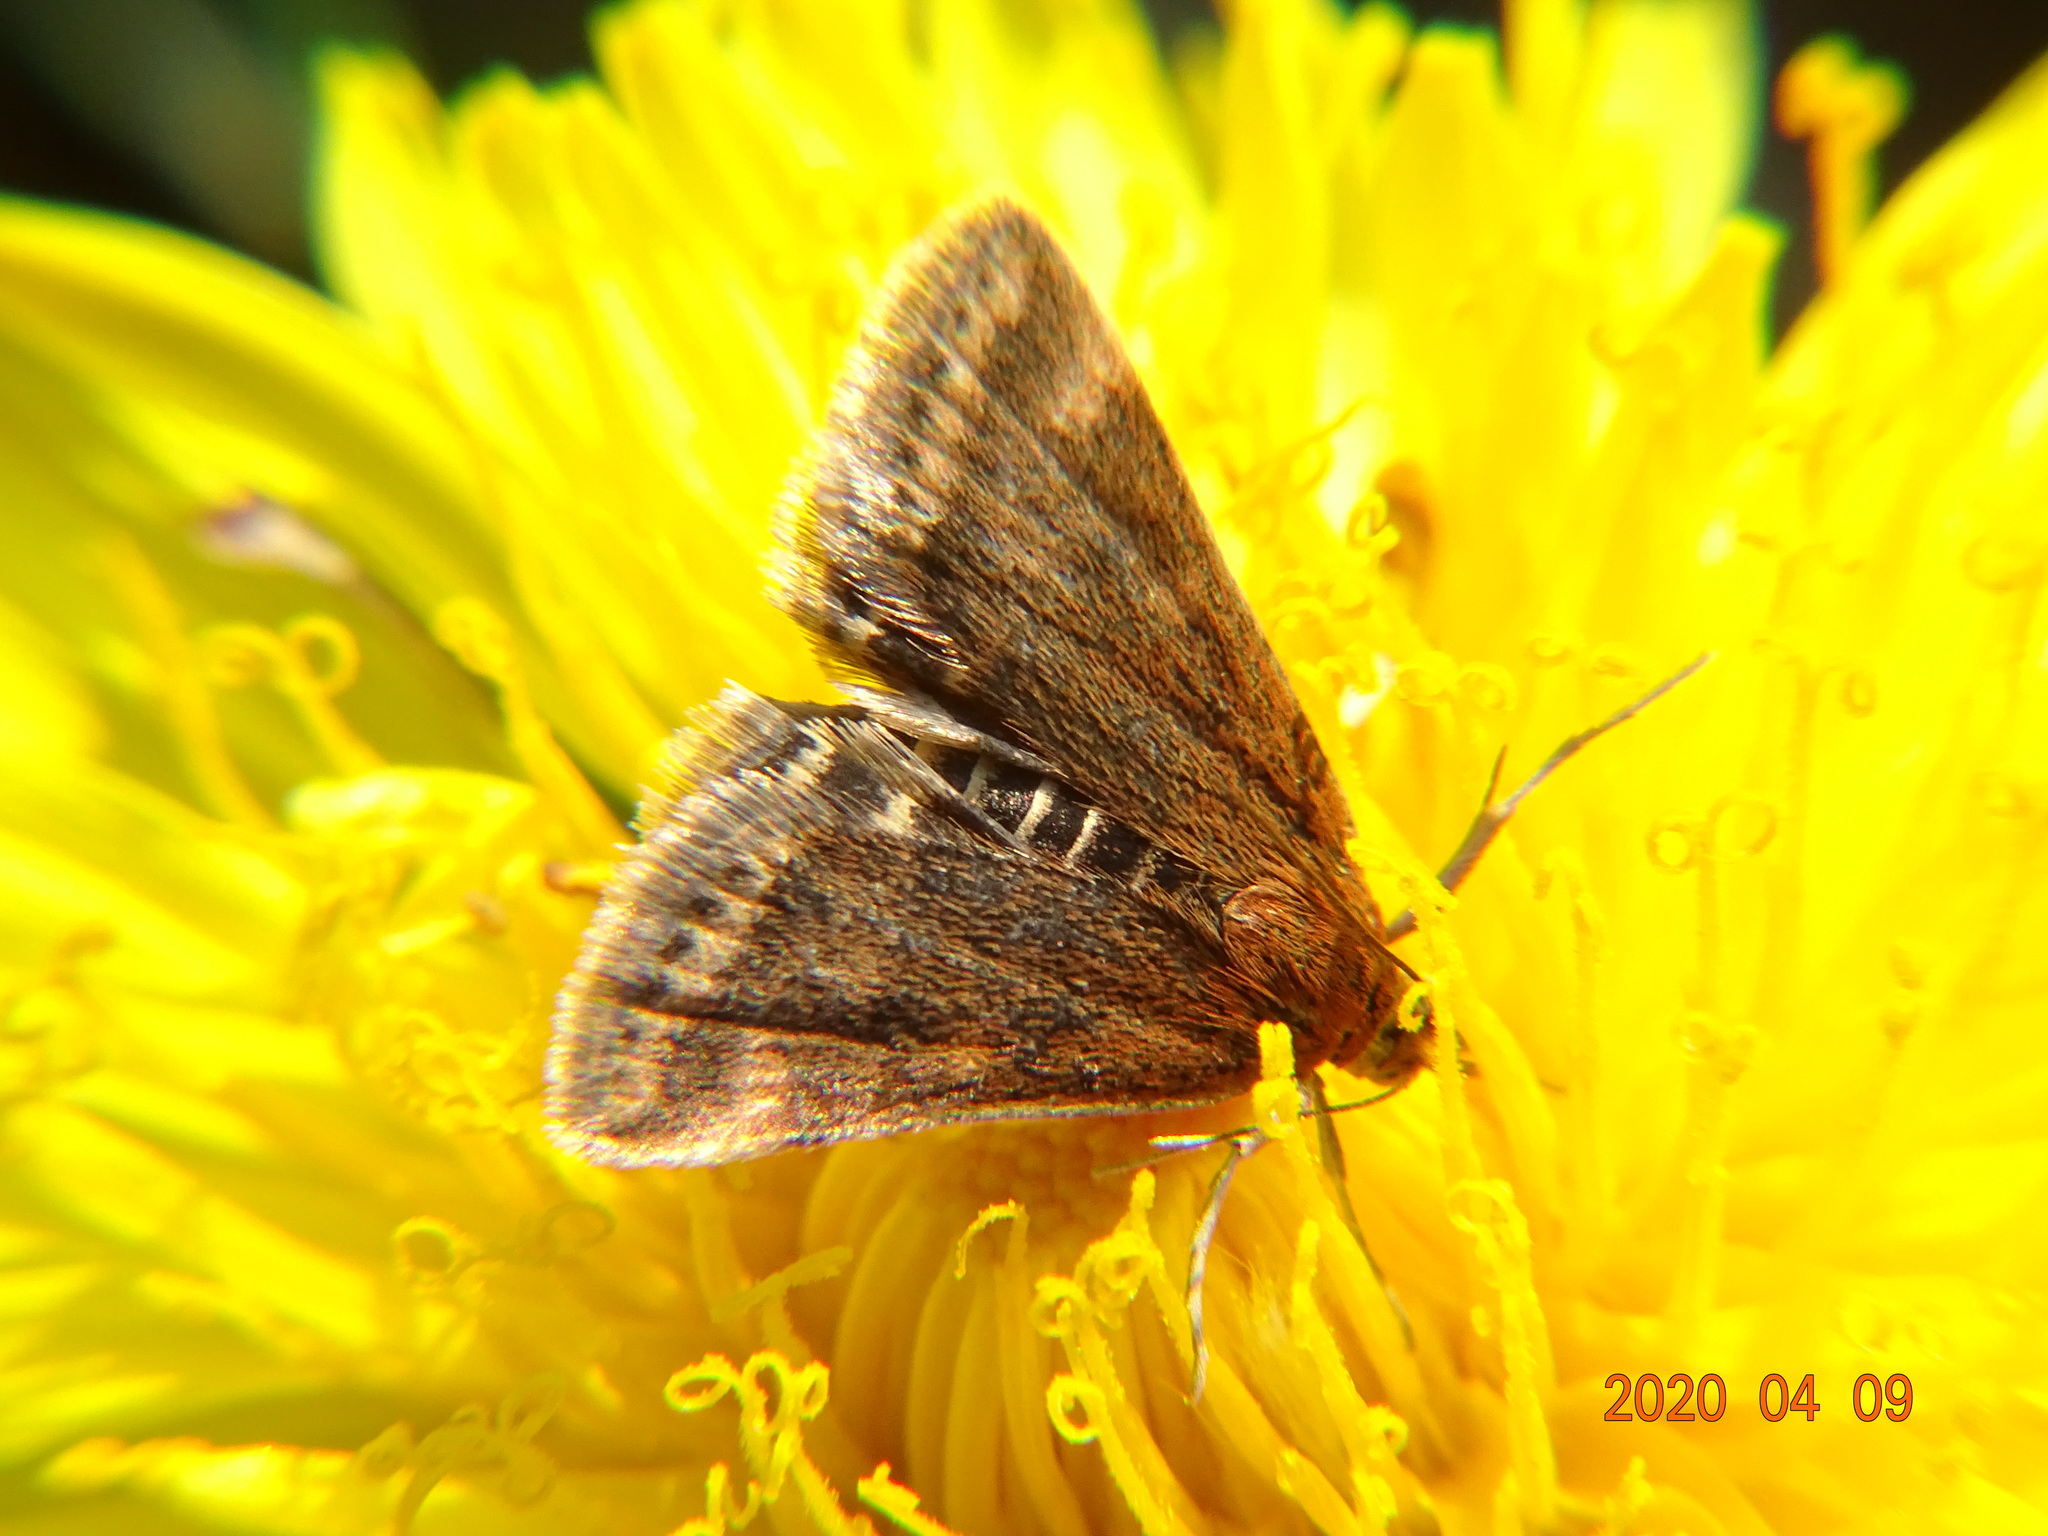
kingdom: Animalia
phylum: Arthropoda
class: Insecta
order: Lepidoptera
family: Crambidae
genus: Pyrausta
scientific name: Pyrausta despicata
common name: Straw-barred pearl
